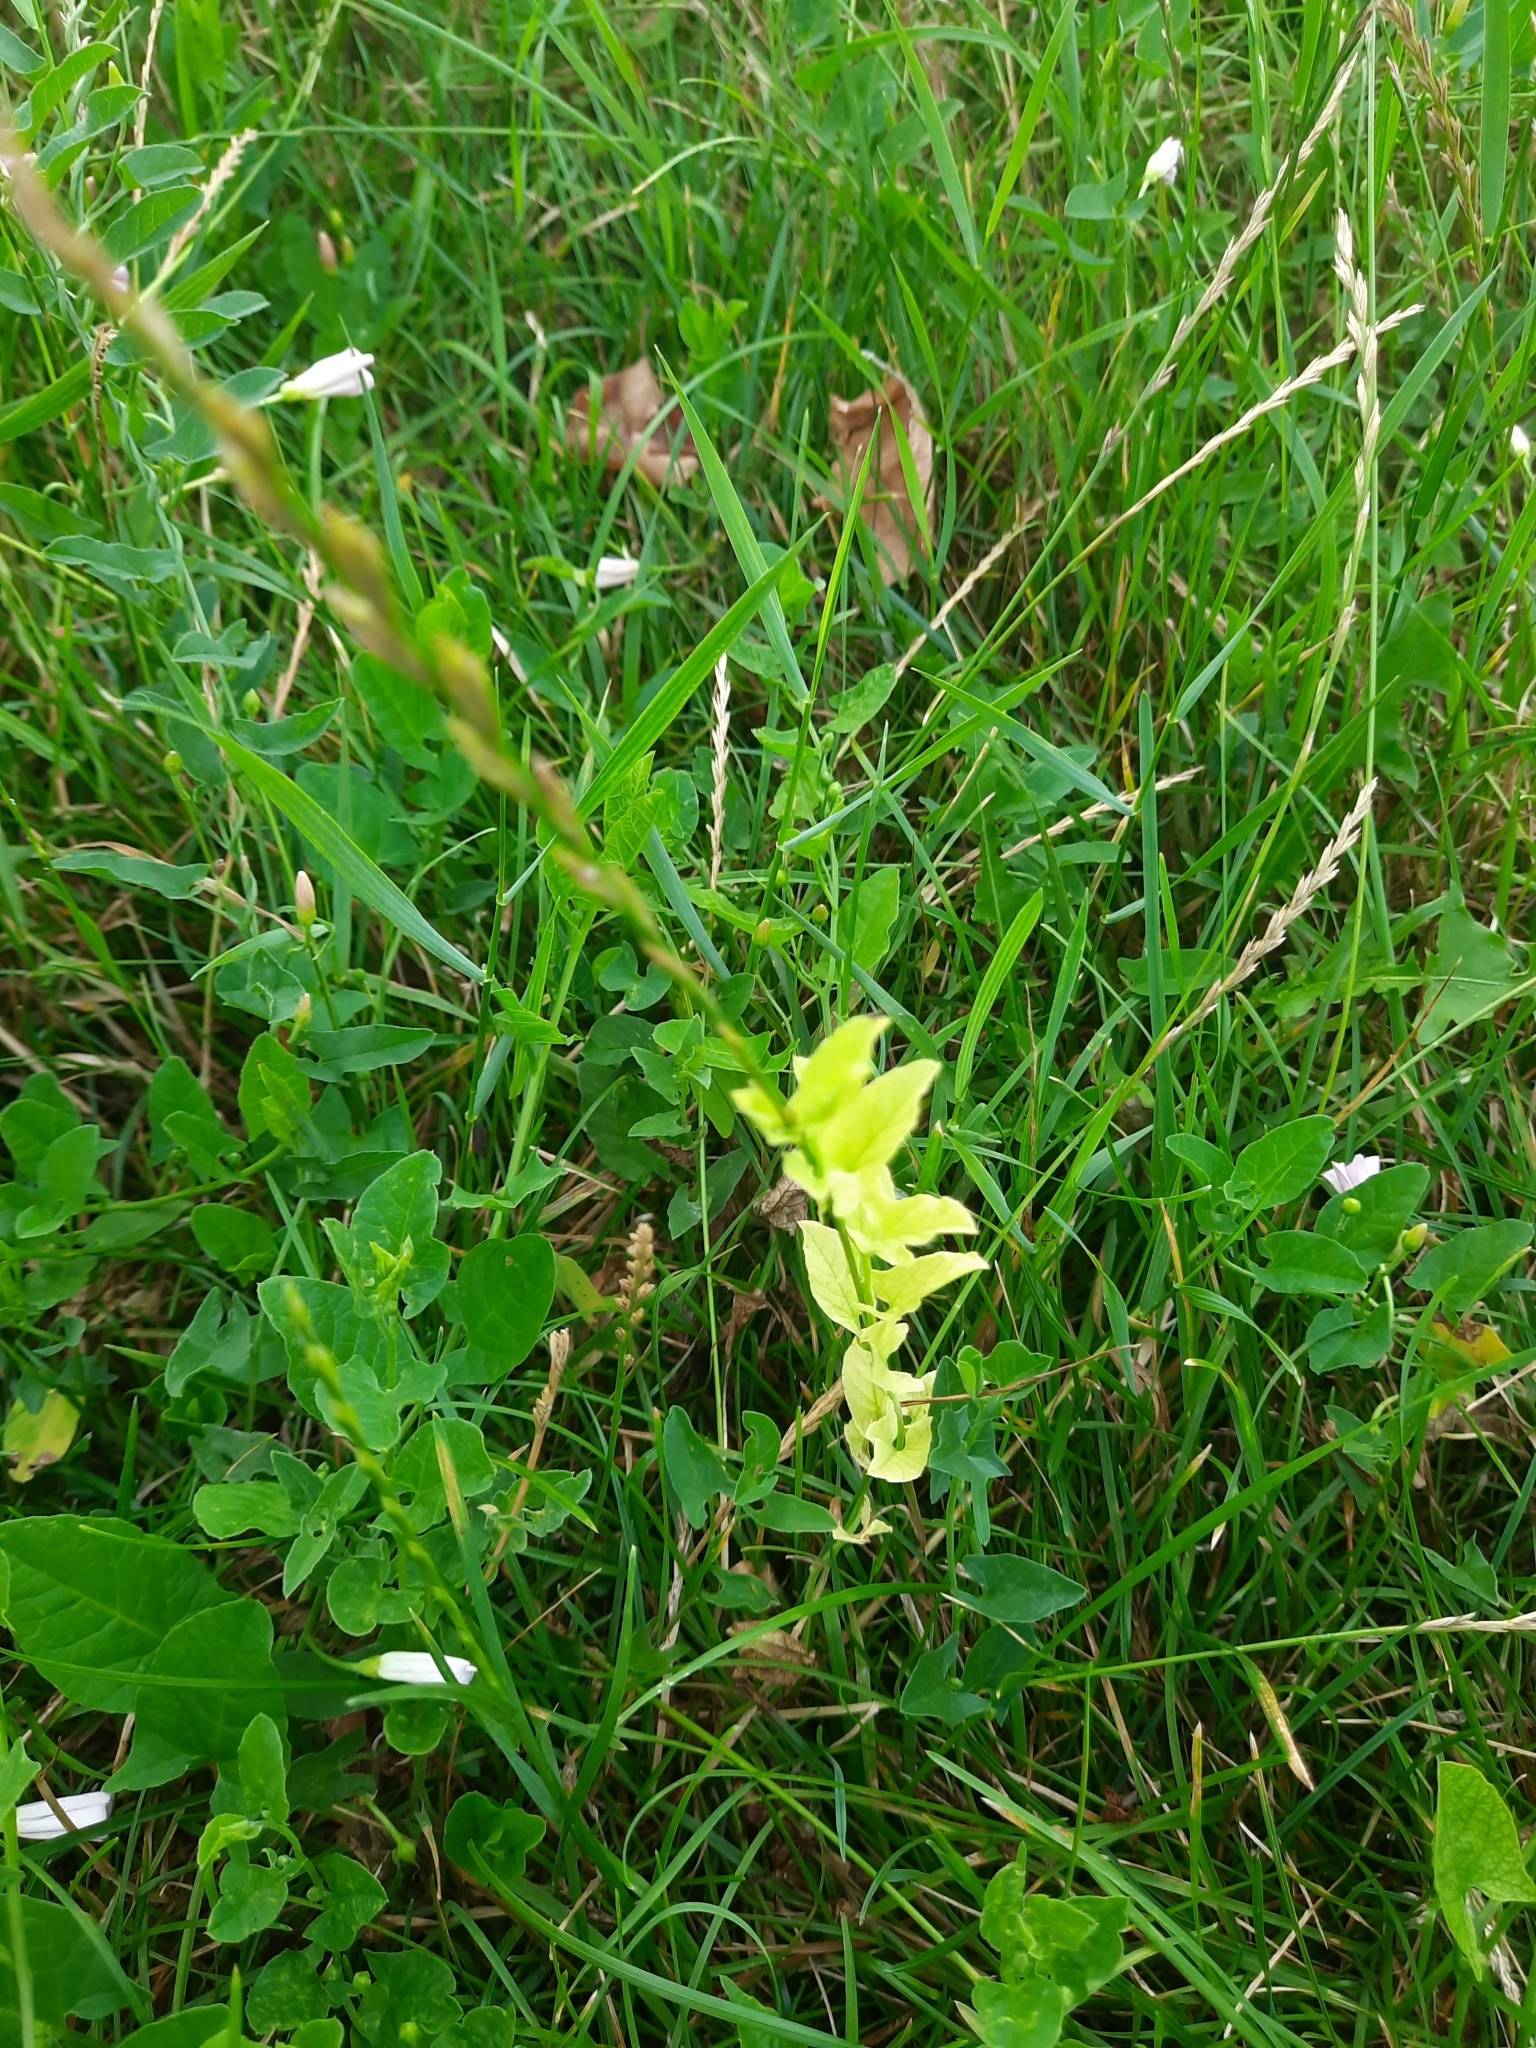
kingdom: Plantae
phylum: Tracheophyta
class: Magnoliopsida
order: Solanales
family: Convolvulaceae
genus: Convolvulus
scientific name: Convolvulus arvensis
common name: Field bindweed
